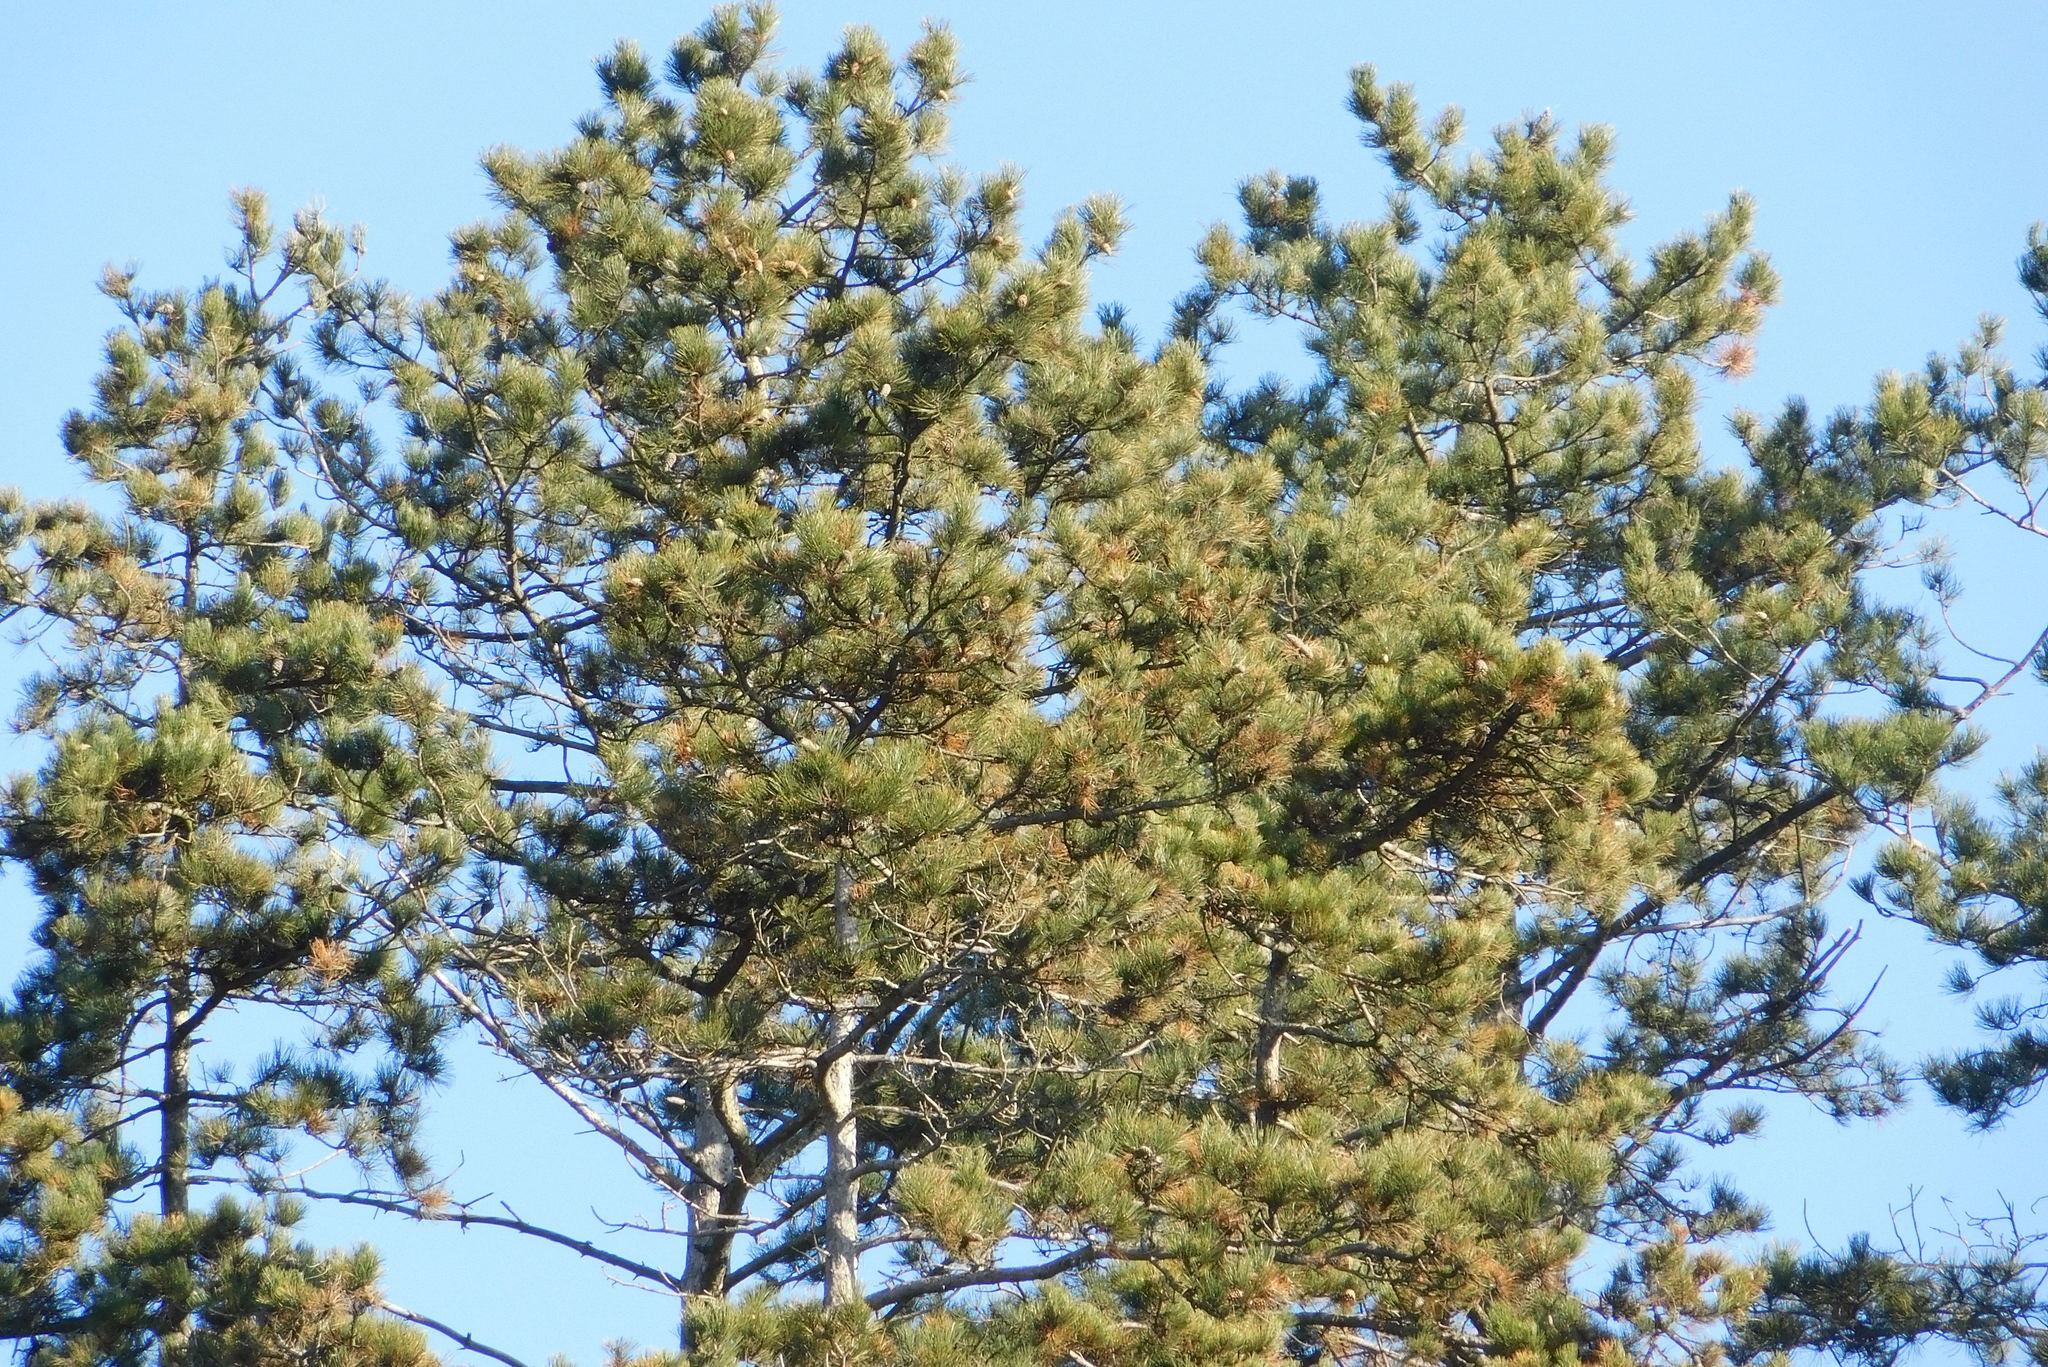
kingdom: Plantae
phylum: Tracheophyta
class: Pinopsida
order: Pinales
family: Pinaceae
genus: Pinus
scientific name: Pinus nigra
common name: Austrian pine
